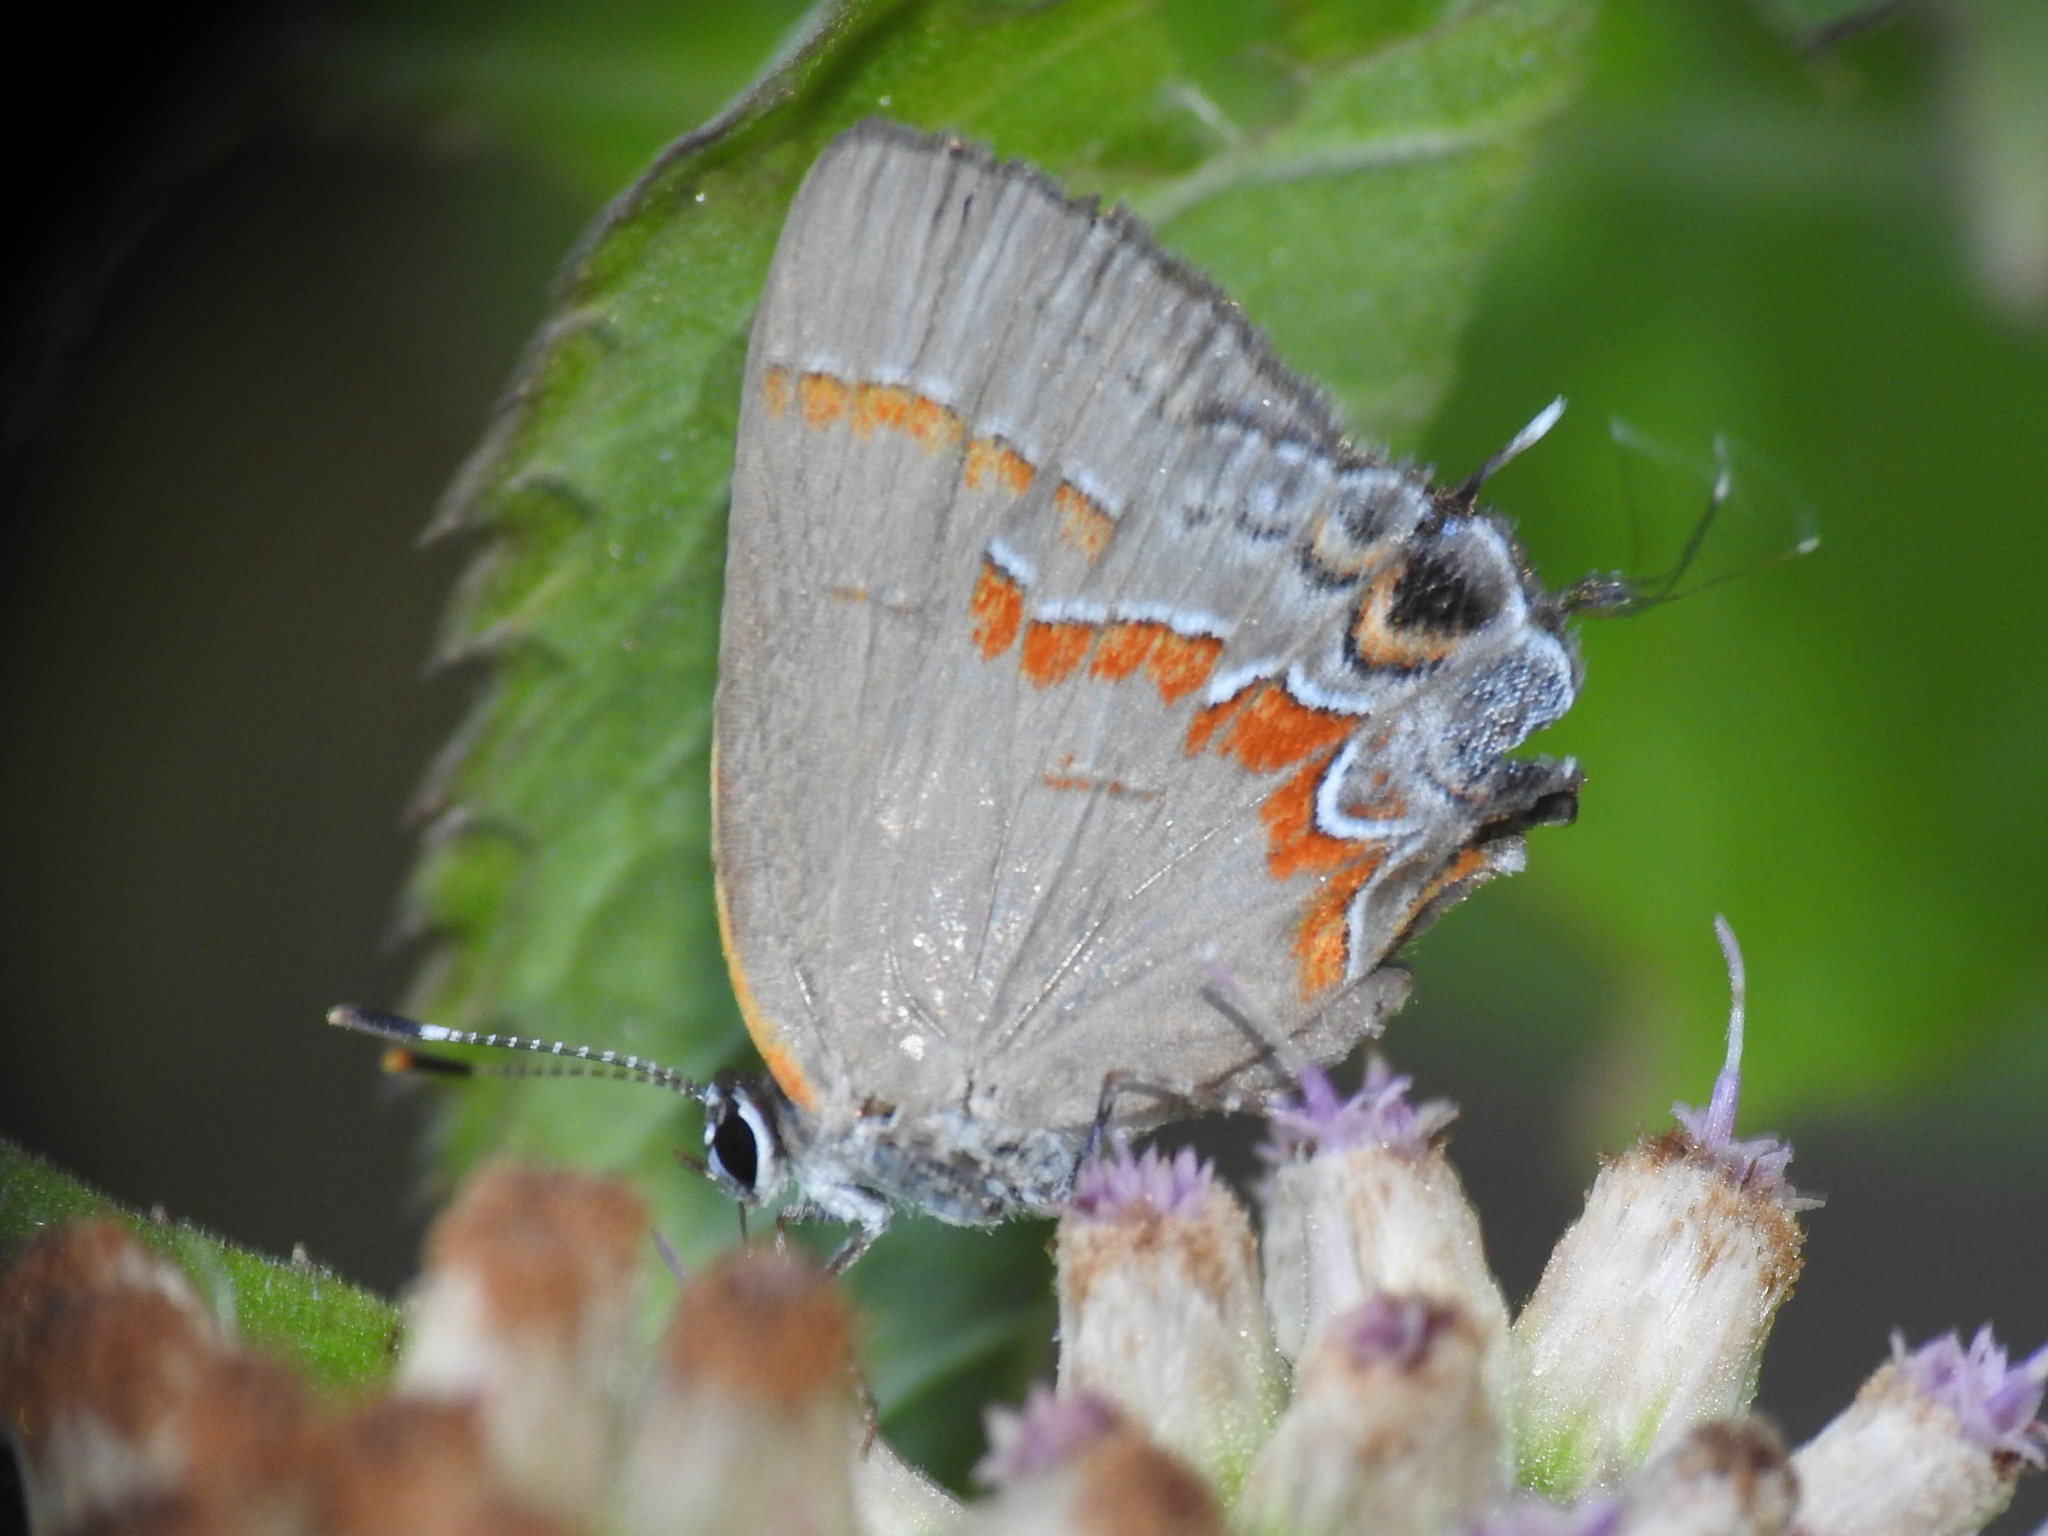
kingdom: Animalia
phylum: Arthropoda
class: Insecta
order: Lepidoptera
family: Lycaenidae
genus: Calycopis
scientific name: Calycopis cecrops
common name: Red-banded hairstreak
